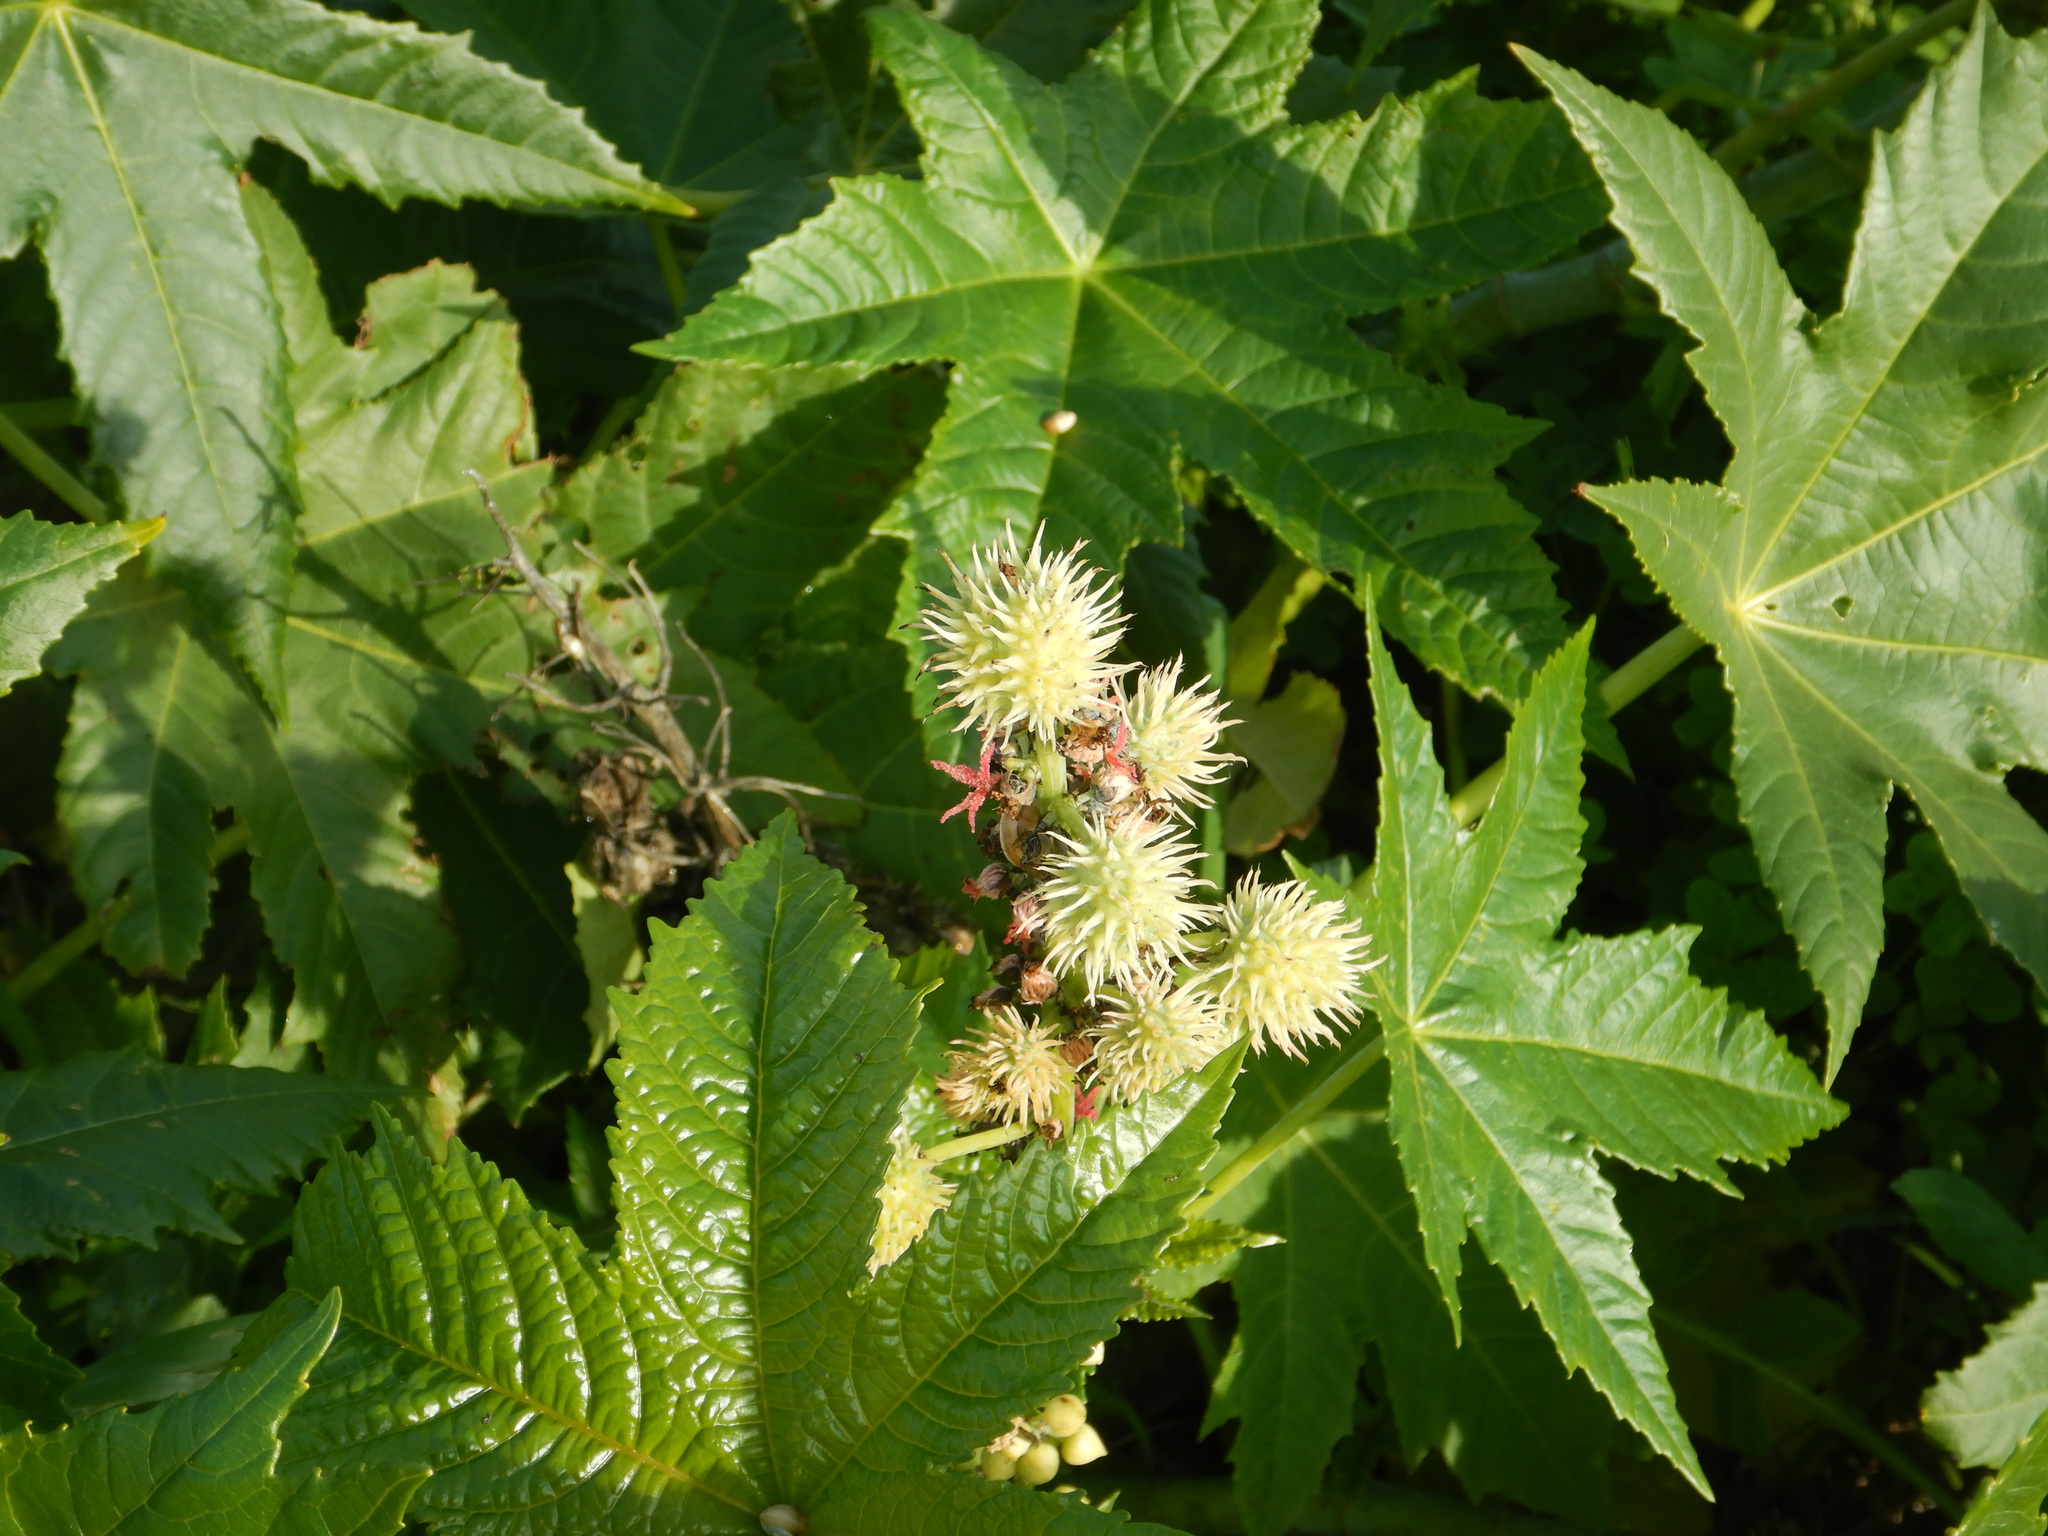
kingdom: Plantae
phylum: Tracheophyta
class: Magnoliopsida
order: Malpighiales
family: Euphorbiaceae
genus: Ricinus
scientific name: Ricinus communis
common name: Castor-oil-plant
